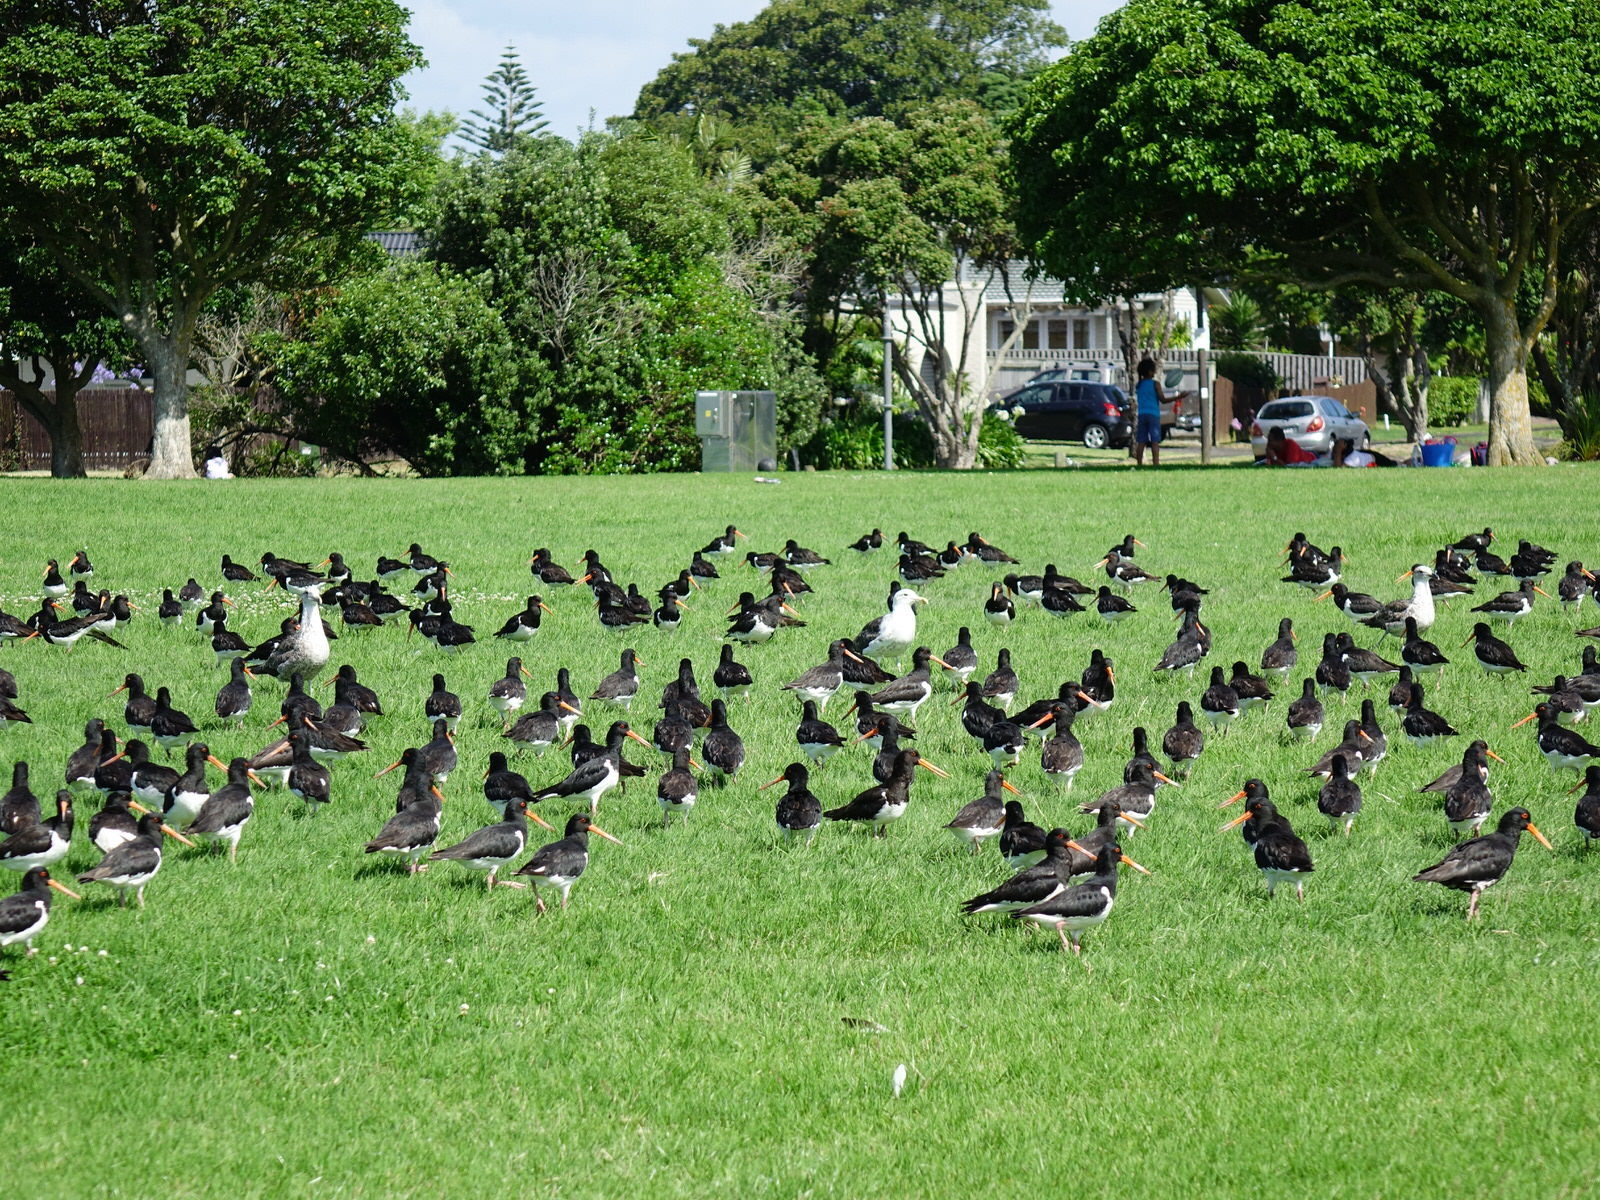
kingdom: Animalia
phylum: Chordata
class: Aves
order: Charadriiformes
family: Haematopodidae
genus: Haematopus
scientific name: Haematopus finschi
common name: South island oystercatcher
